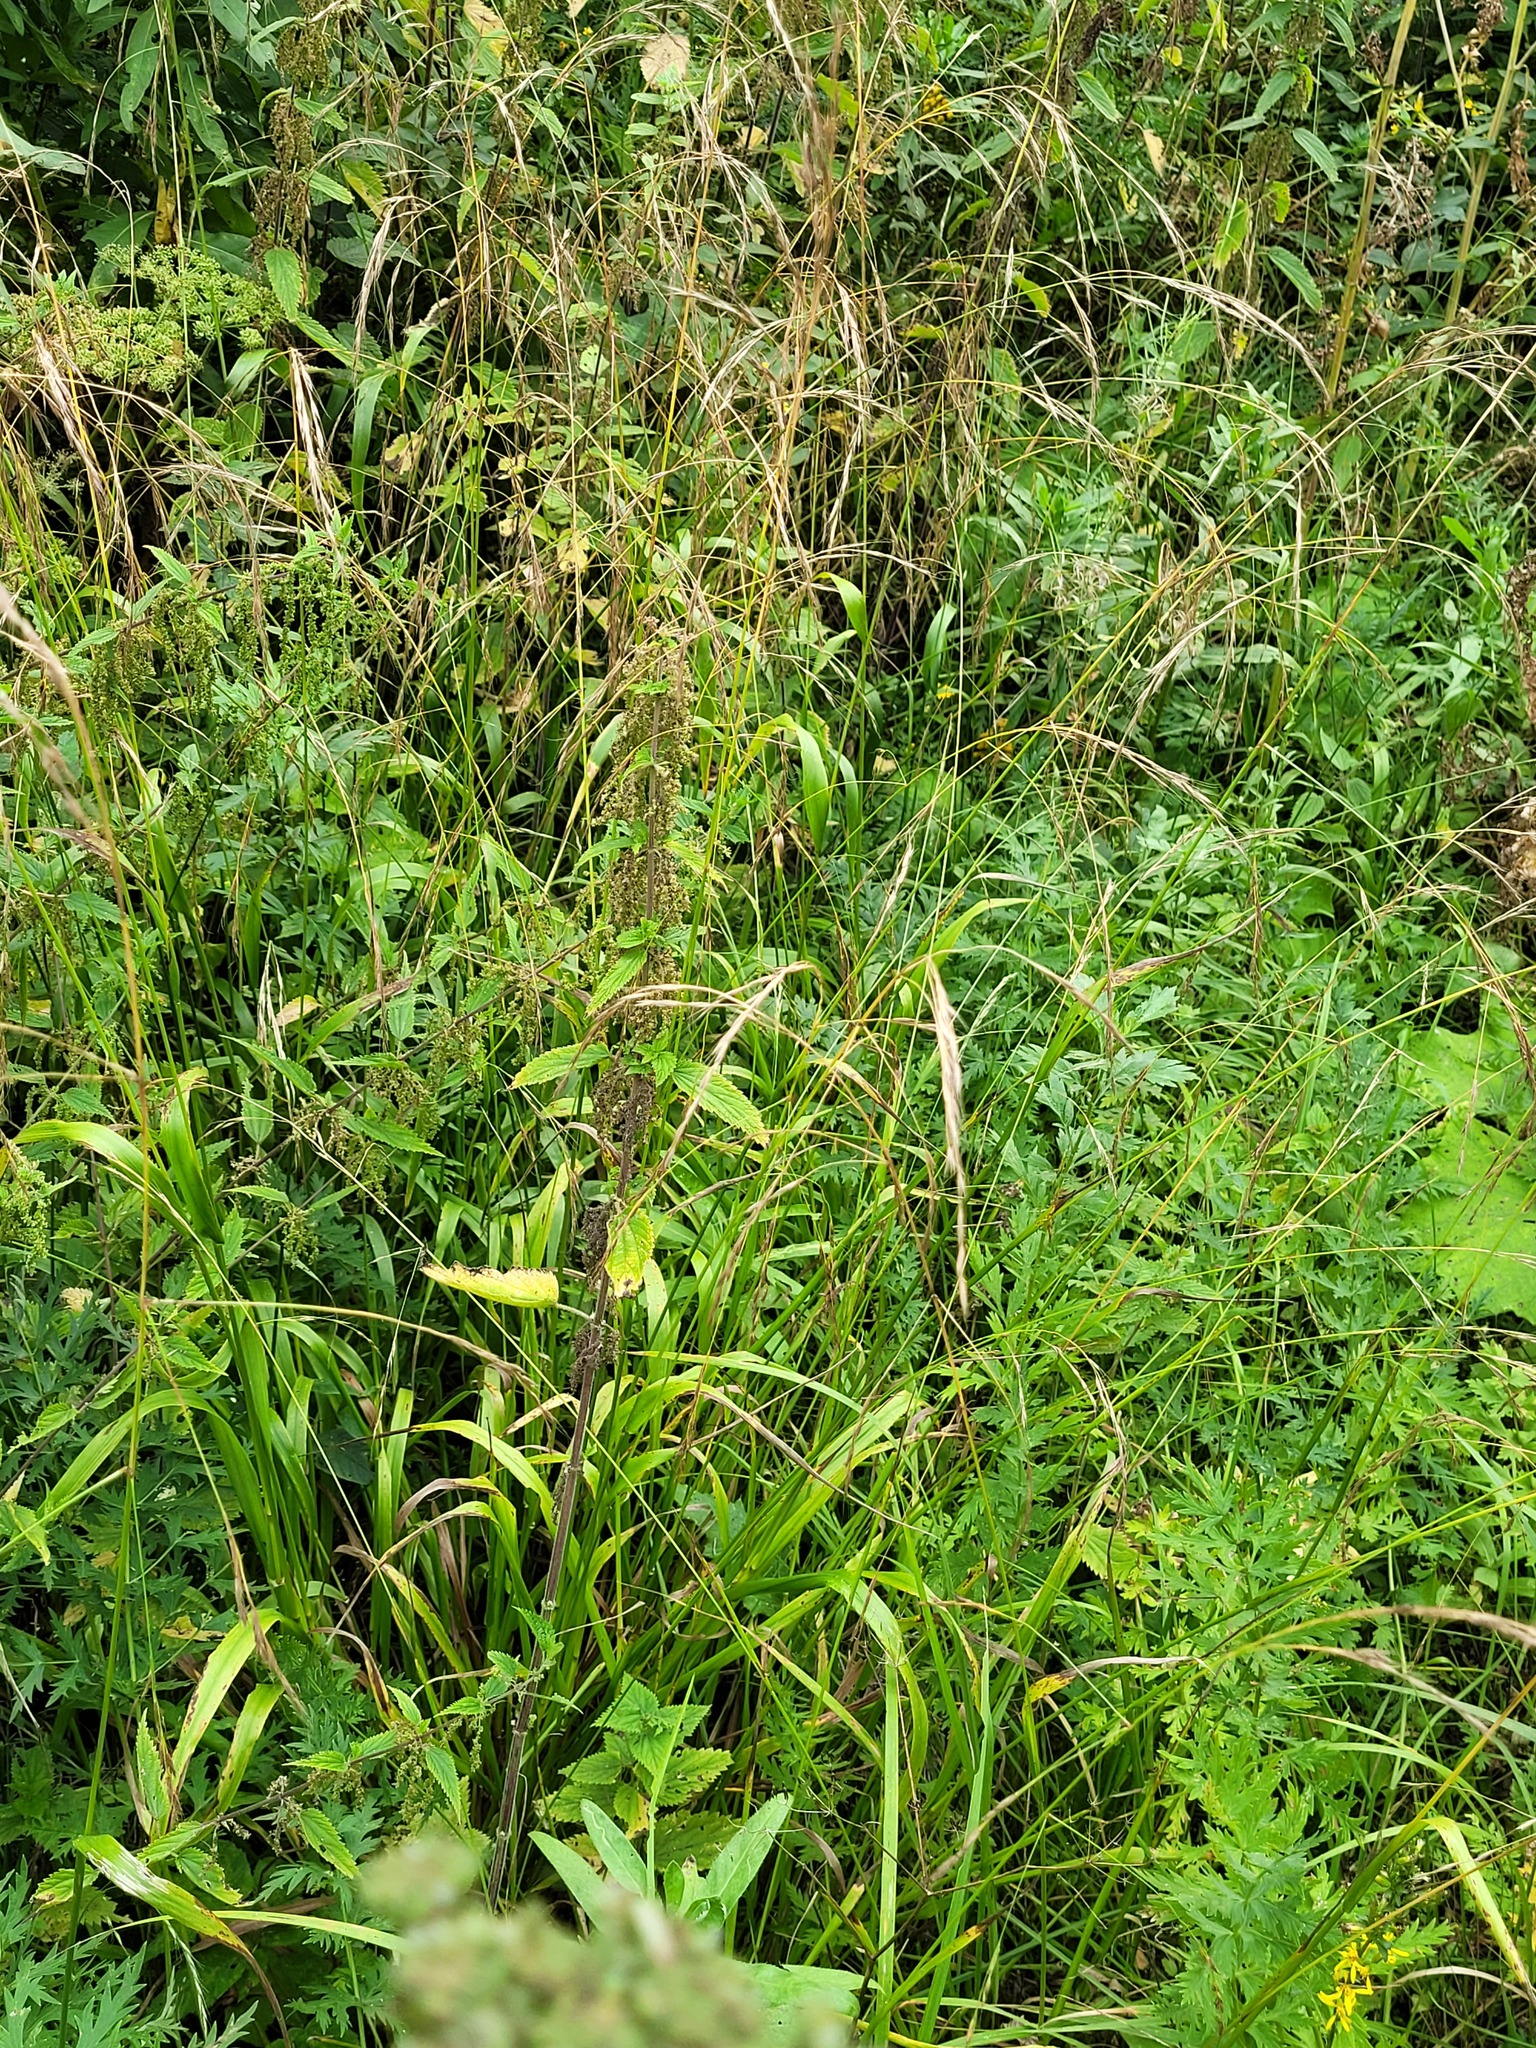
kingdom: Plantae
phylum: Tracheophyta
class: Liliopsida
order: Poales
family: Poaceae
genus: Lolium
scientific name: Lolium giganteum
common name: Giant fescue
